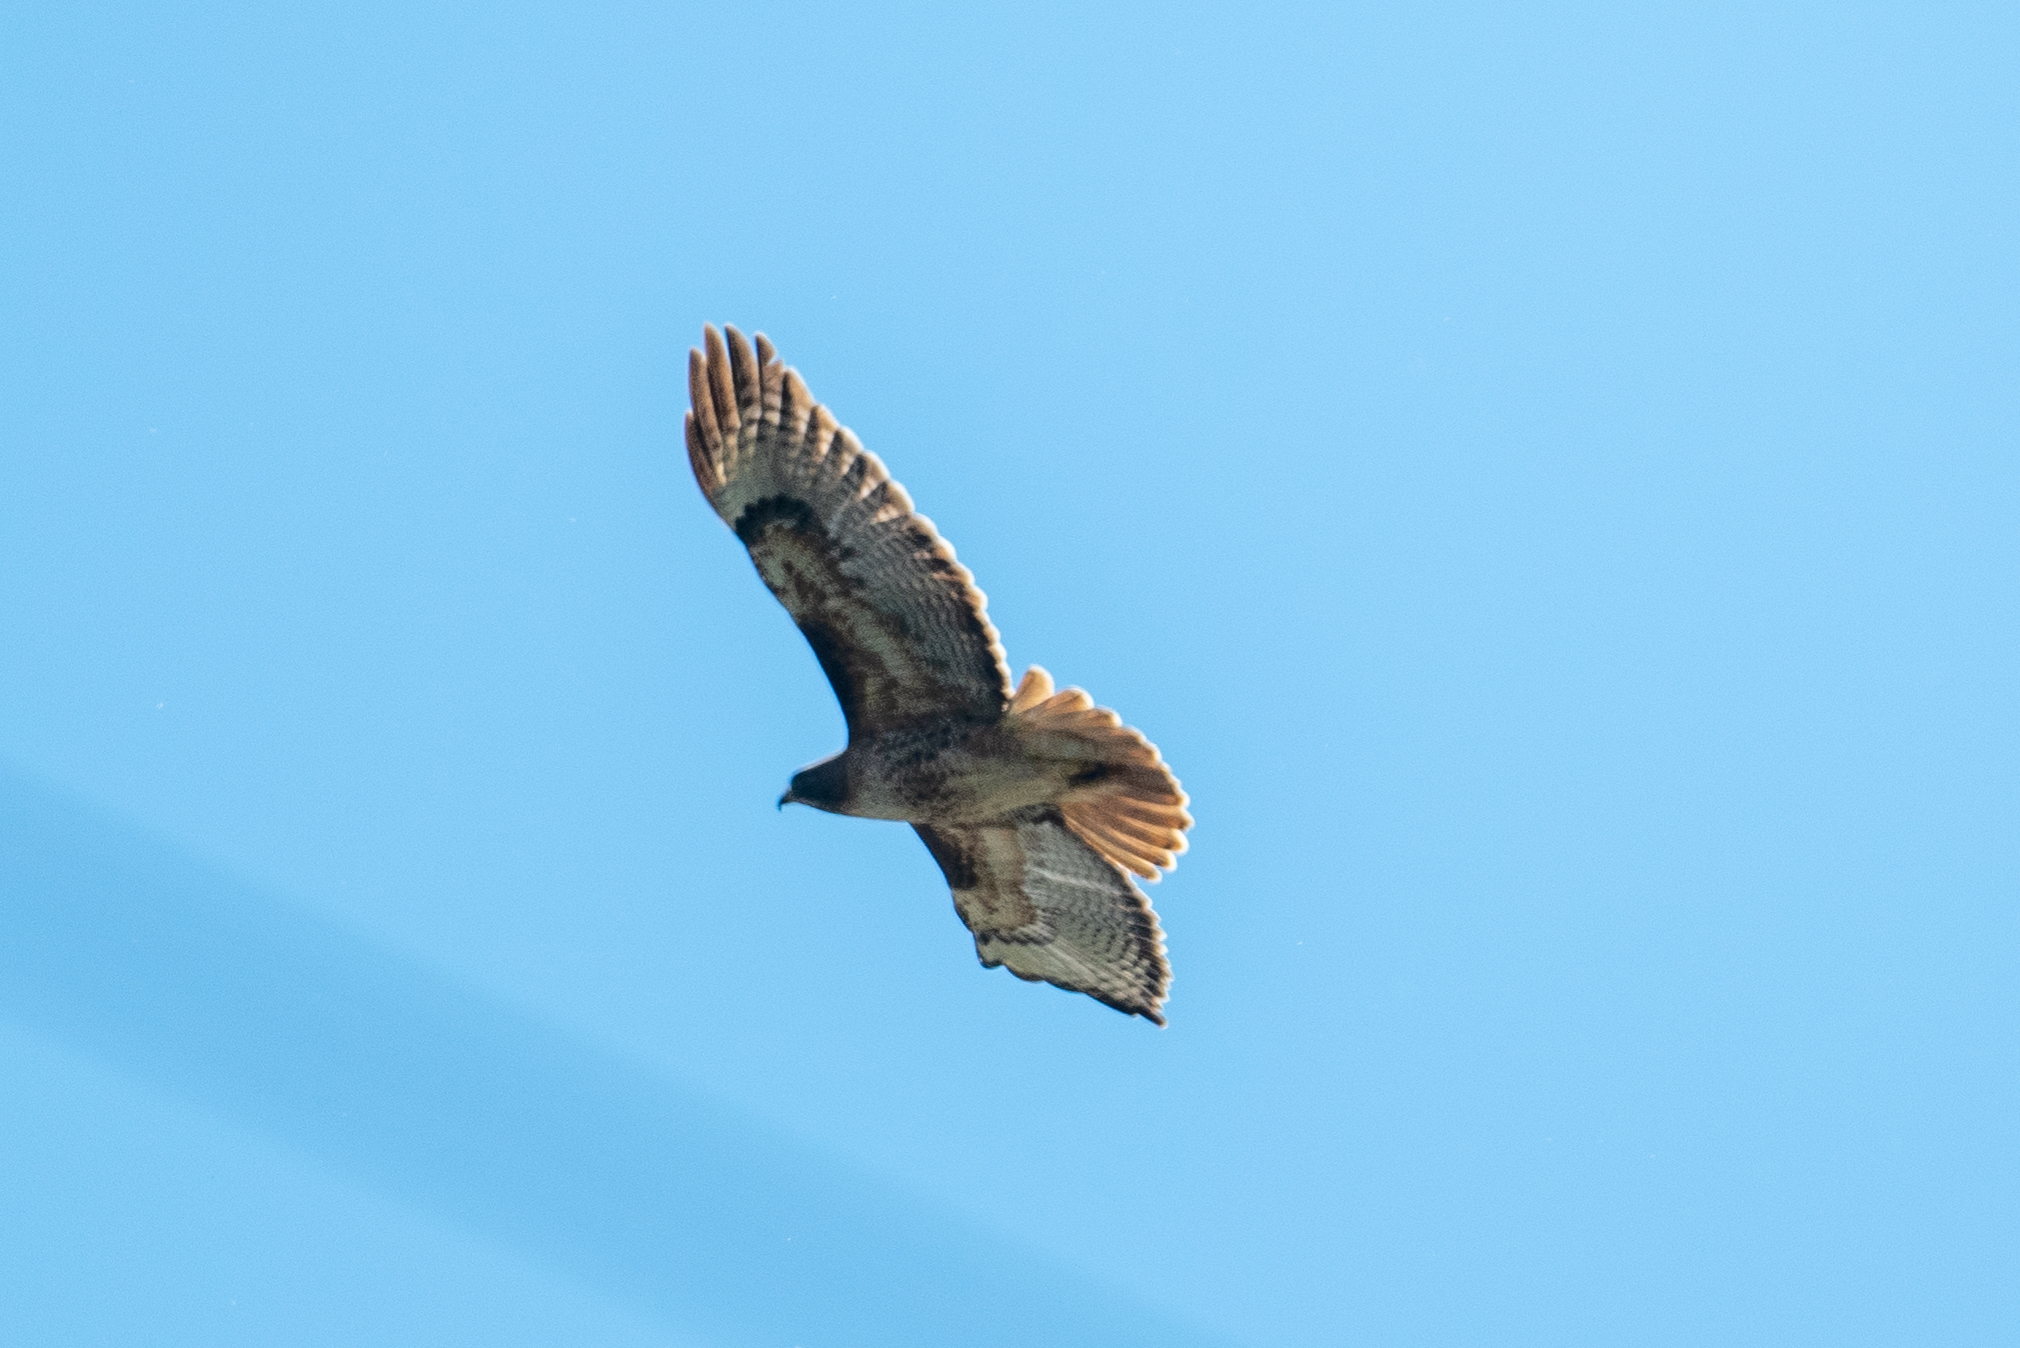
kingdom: Animalia
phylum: Chordata
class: Aves
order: Accipitriformes
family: Accipitridae
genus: Buteo
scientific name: Buteo jamaicensis
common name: Red-tailed hawk
